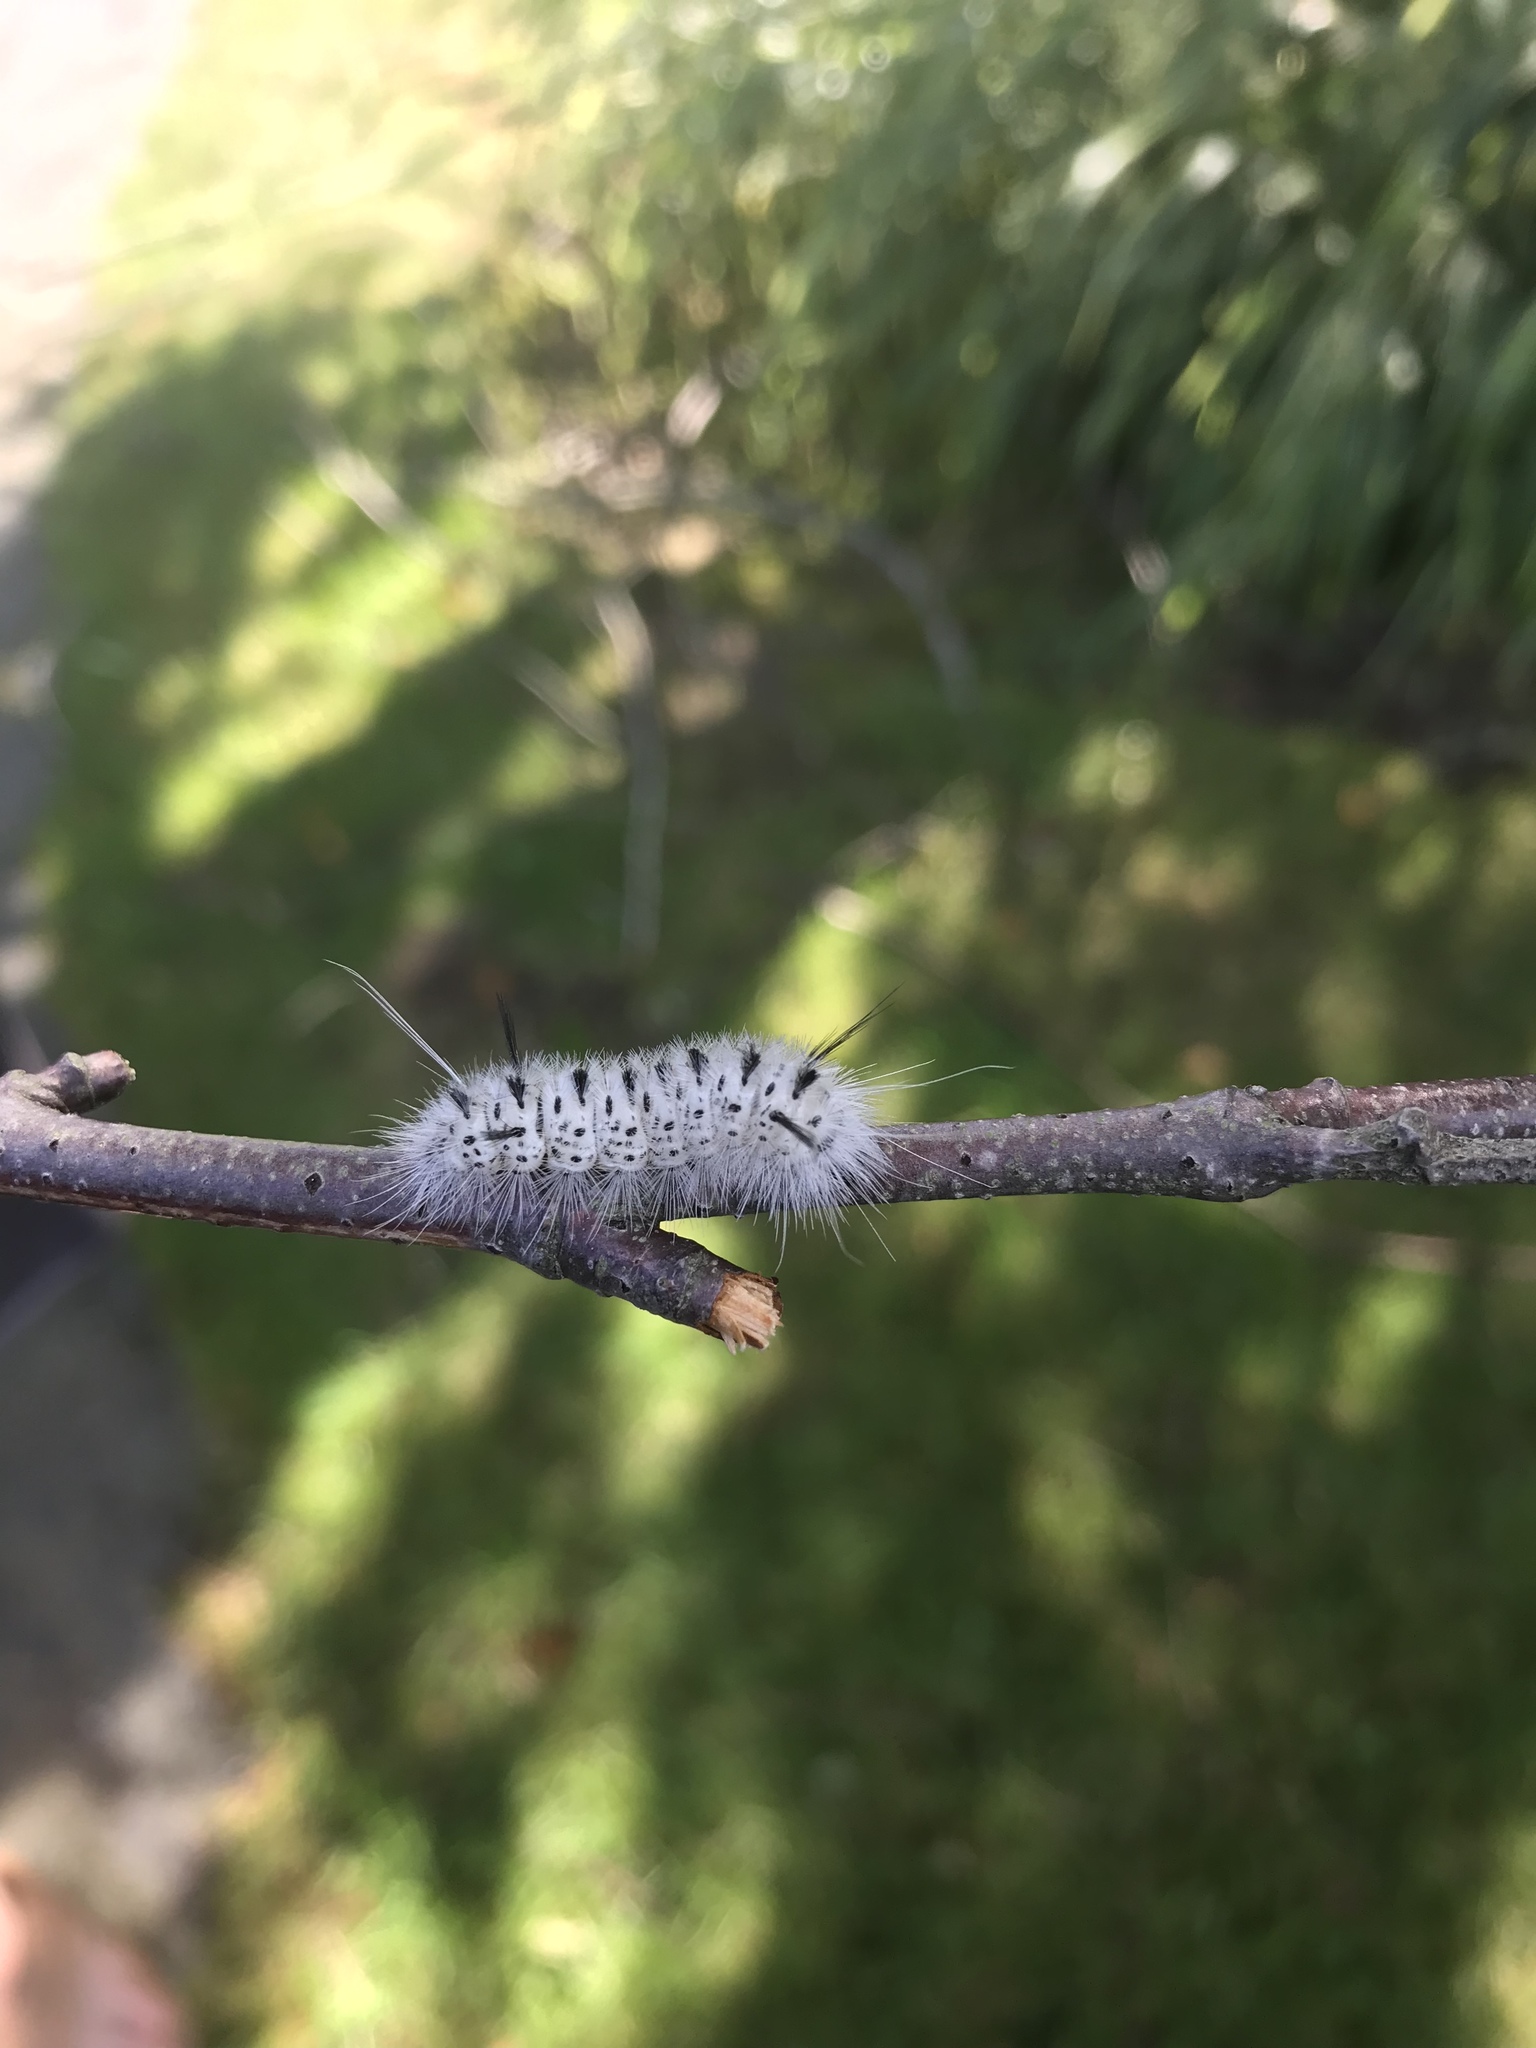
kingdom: Animalia
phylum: Arthropoda
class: Insecta
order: Lepidoptera
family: Erebidae
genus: Lophocampa
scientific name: Lophocampa caryae
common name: Hickory tussock moth
